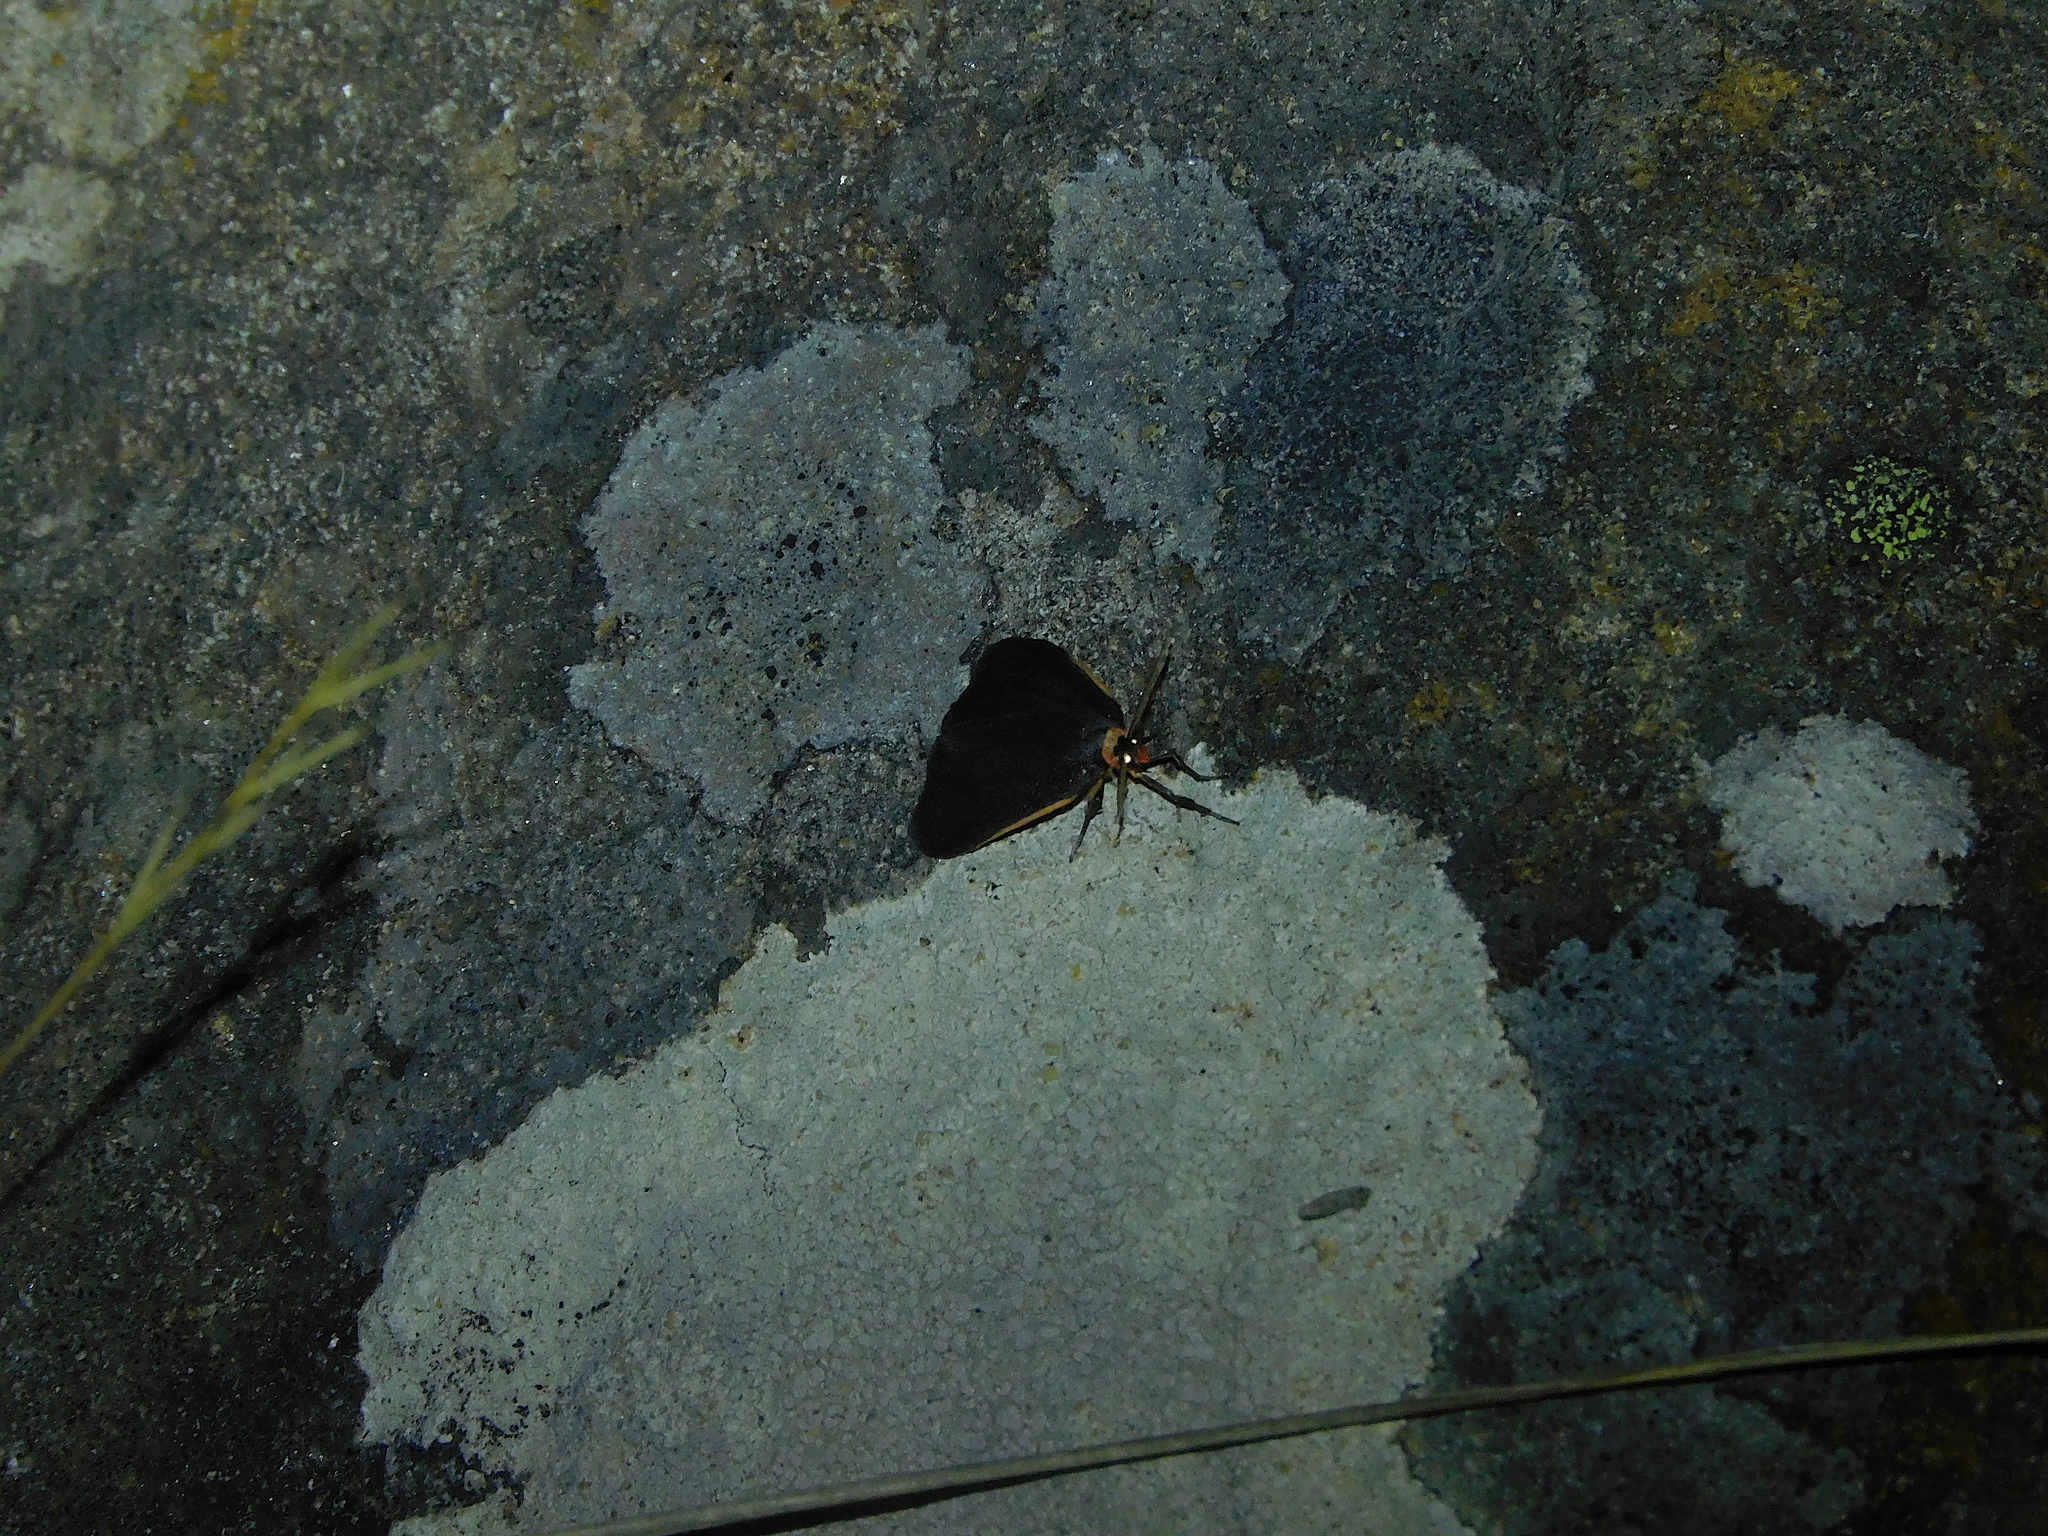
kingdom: Animalia
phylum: Arthropoda
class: Insecta
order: Lepidoptera
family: Erebidae
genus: Castulo
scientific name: Castulo doubledayi
